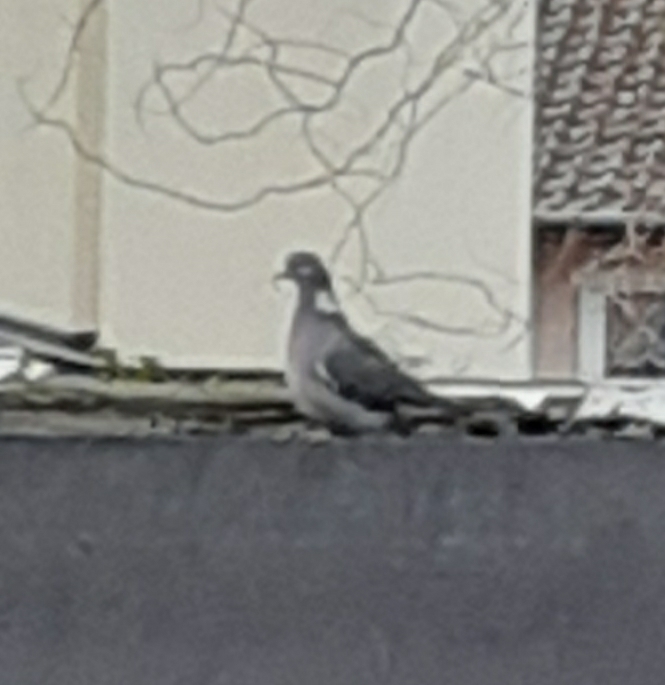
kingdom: Animalia
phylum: Chordata
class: Aves
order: Columbiformes
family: Columbidae
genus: Columba
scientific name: Columba palumbus
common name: Common wood pigeon
